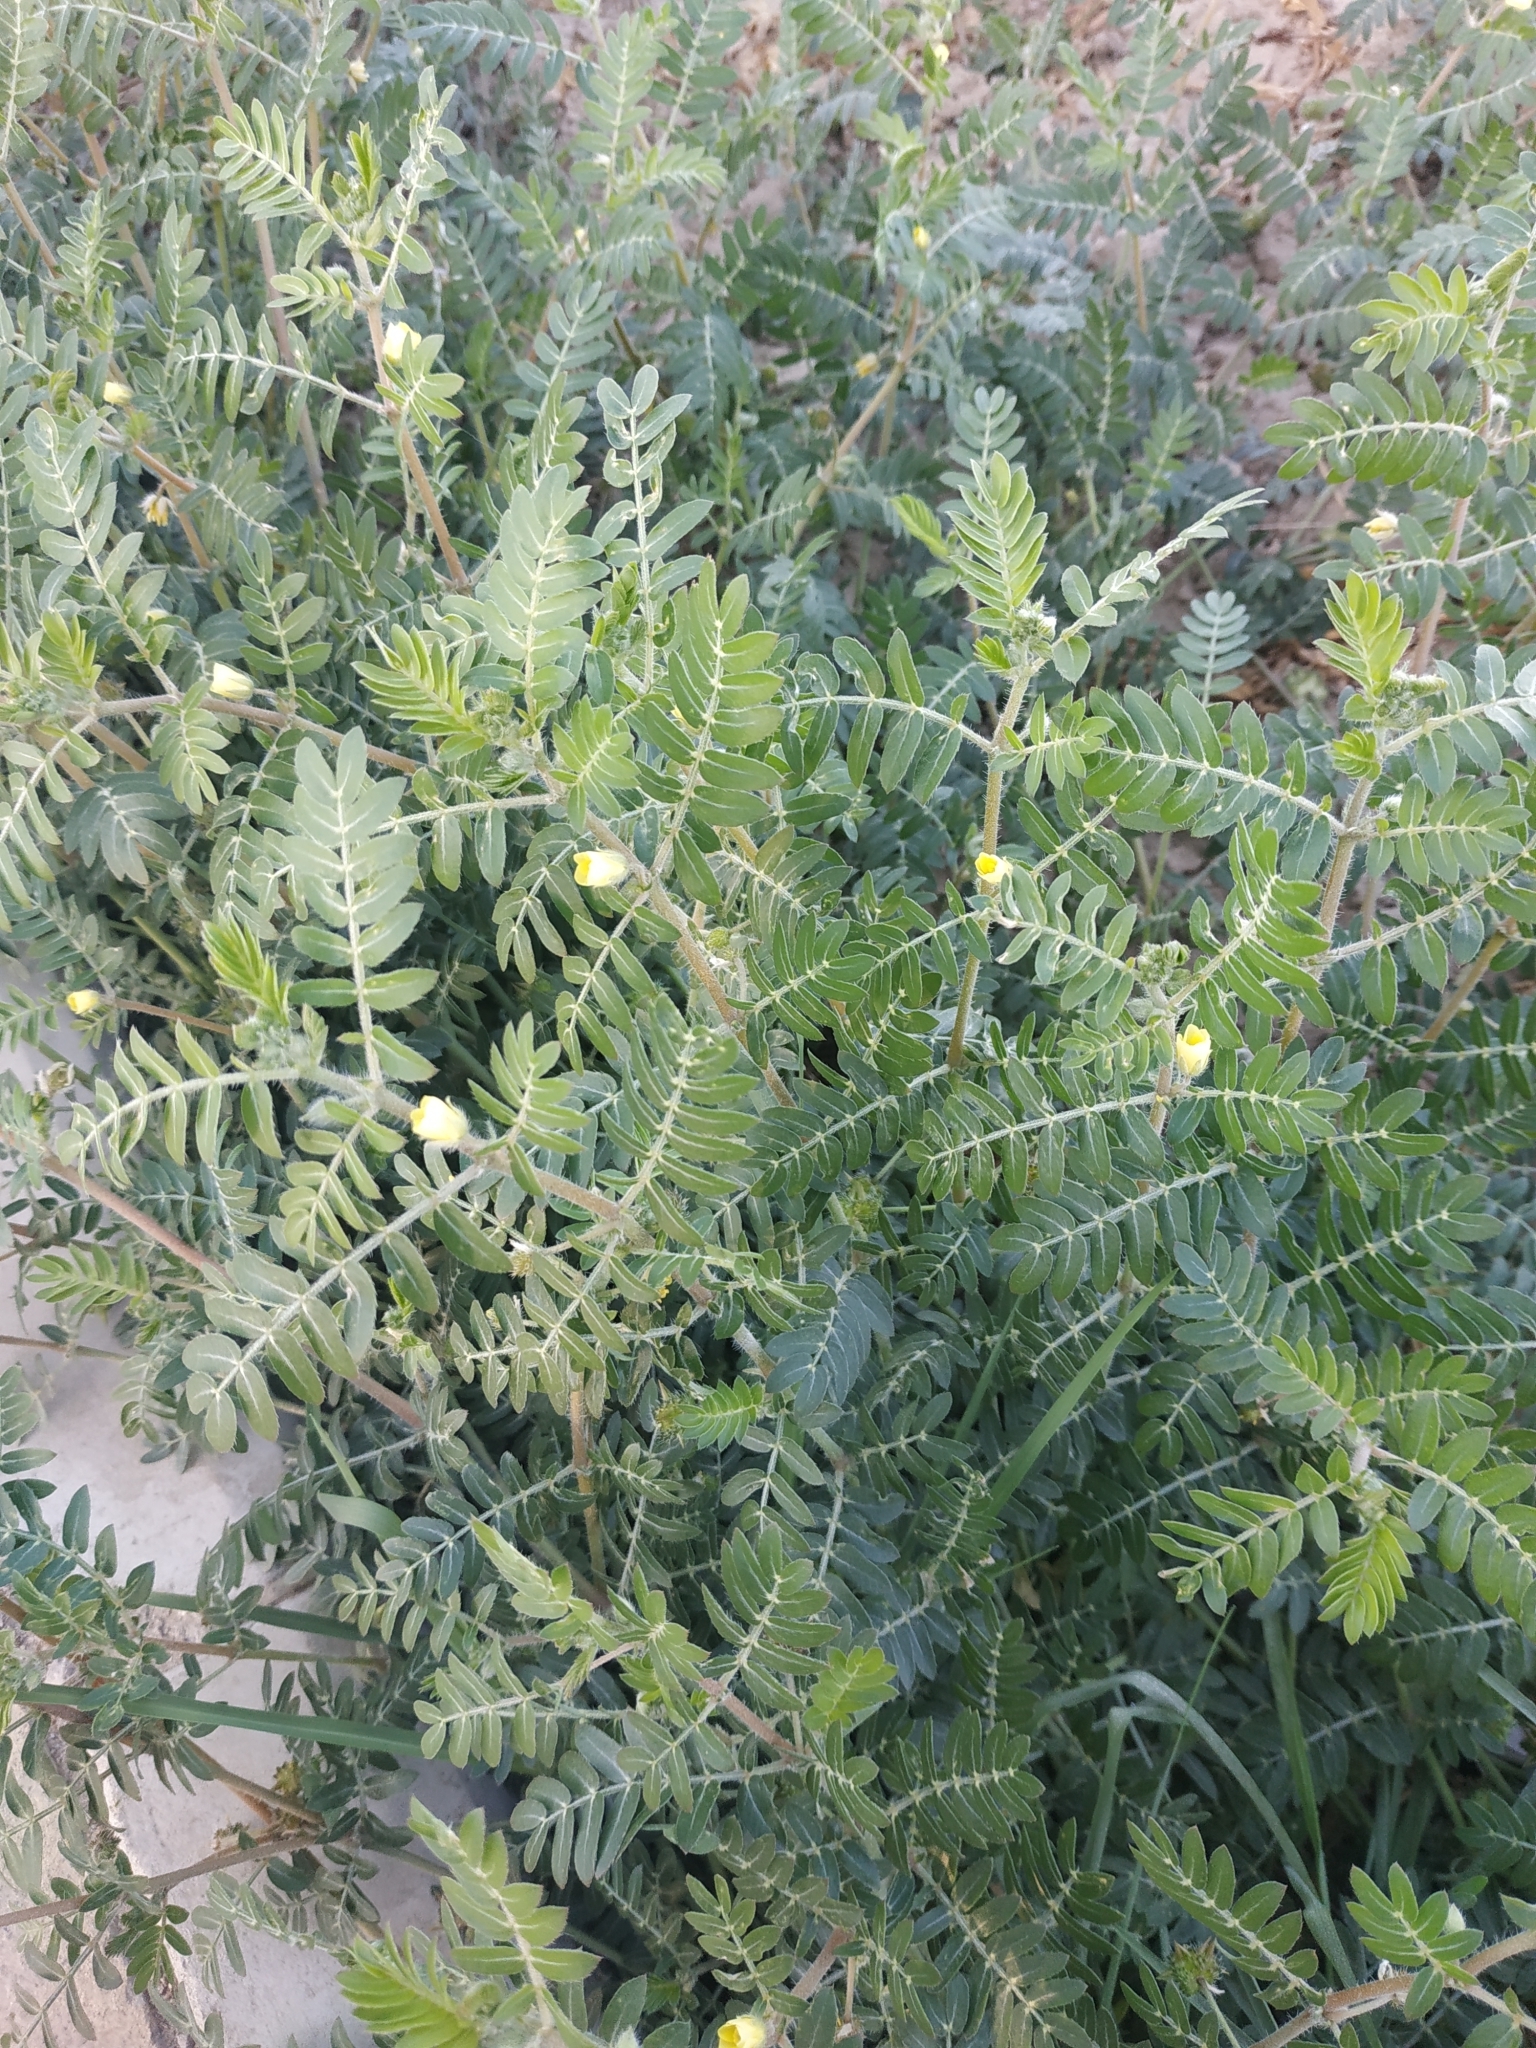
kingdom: Plantae
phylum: Tracheophyta
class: Magnoliopsida
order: Zygophyllales
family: Zygophyllaceae
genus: Tribulus
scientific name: Tribulus terrestris
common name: Puncturevine
